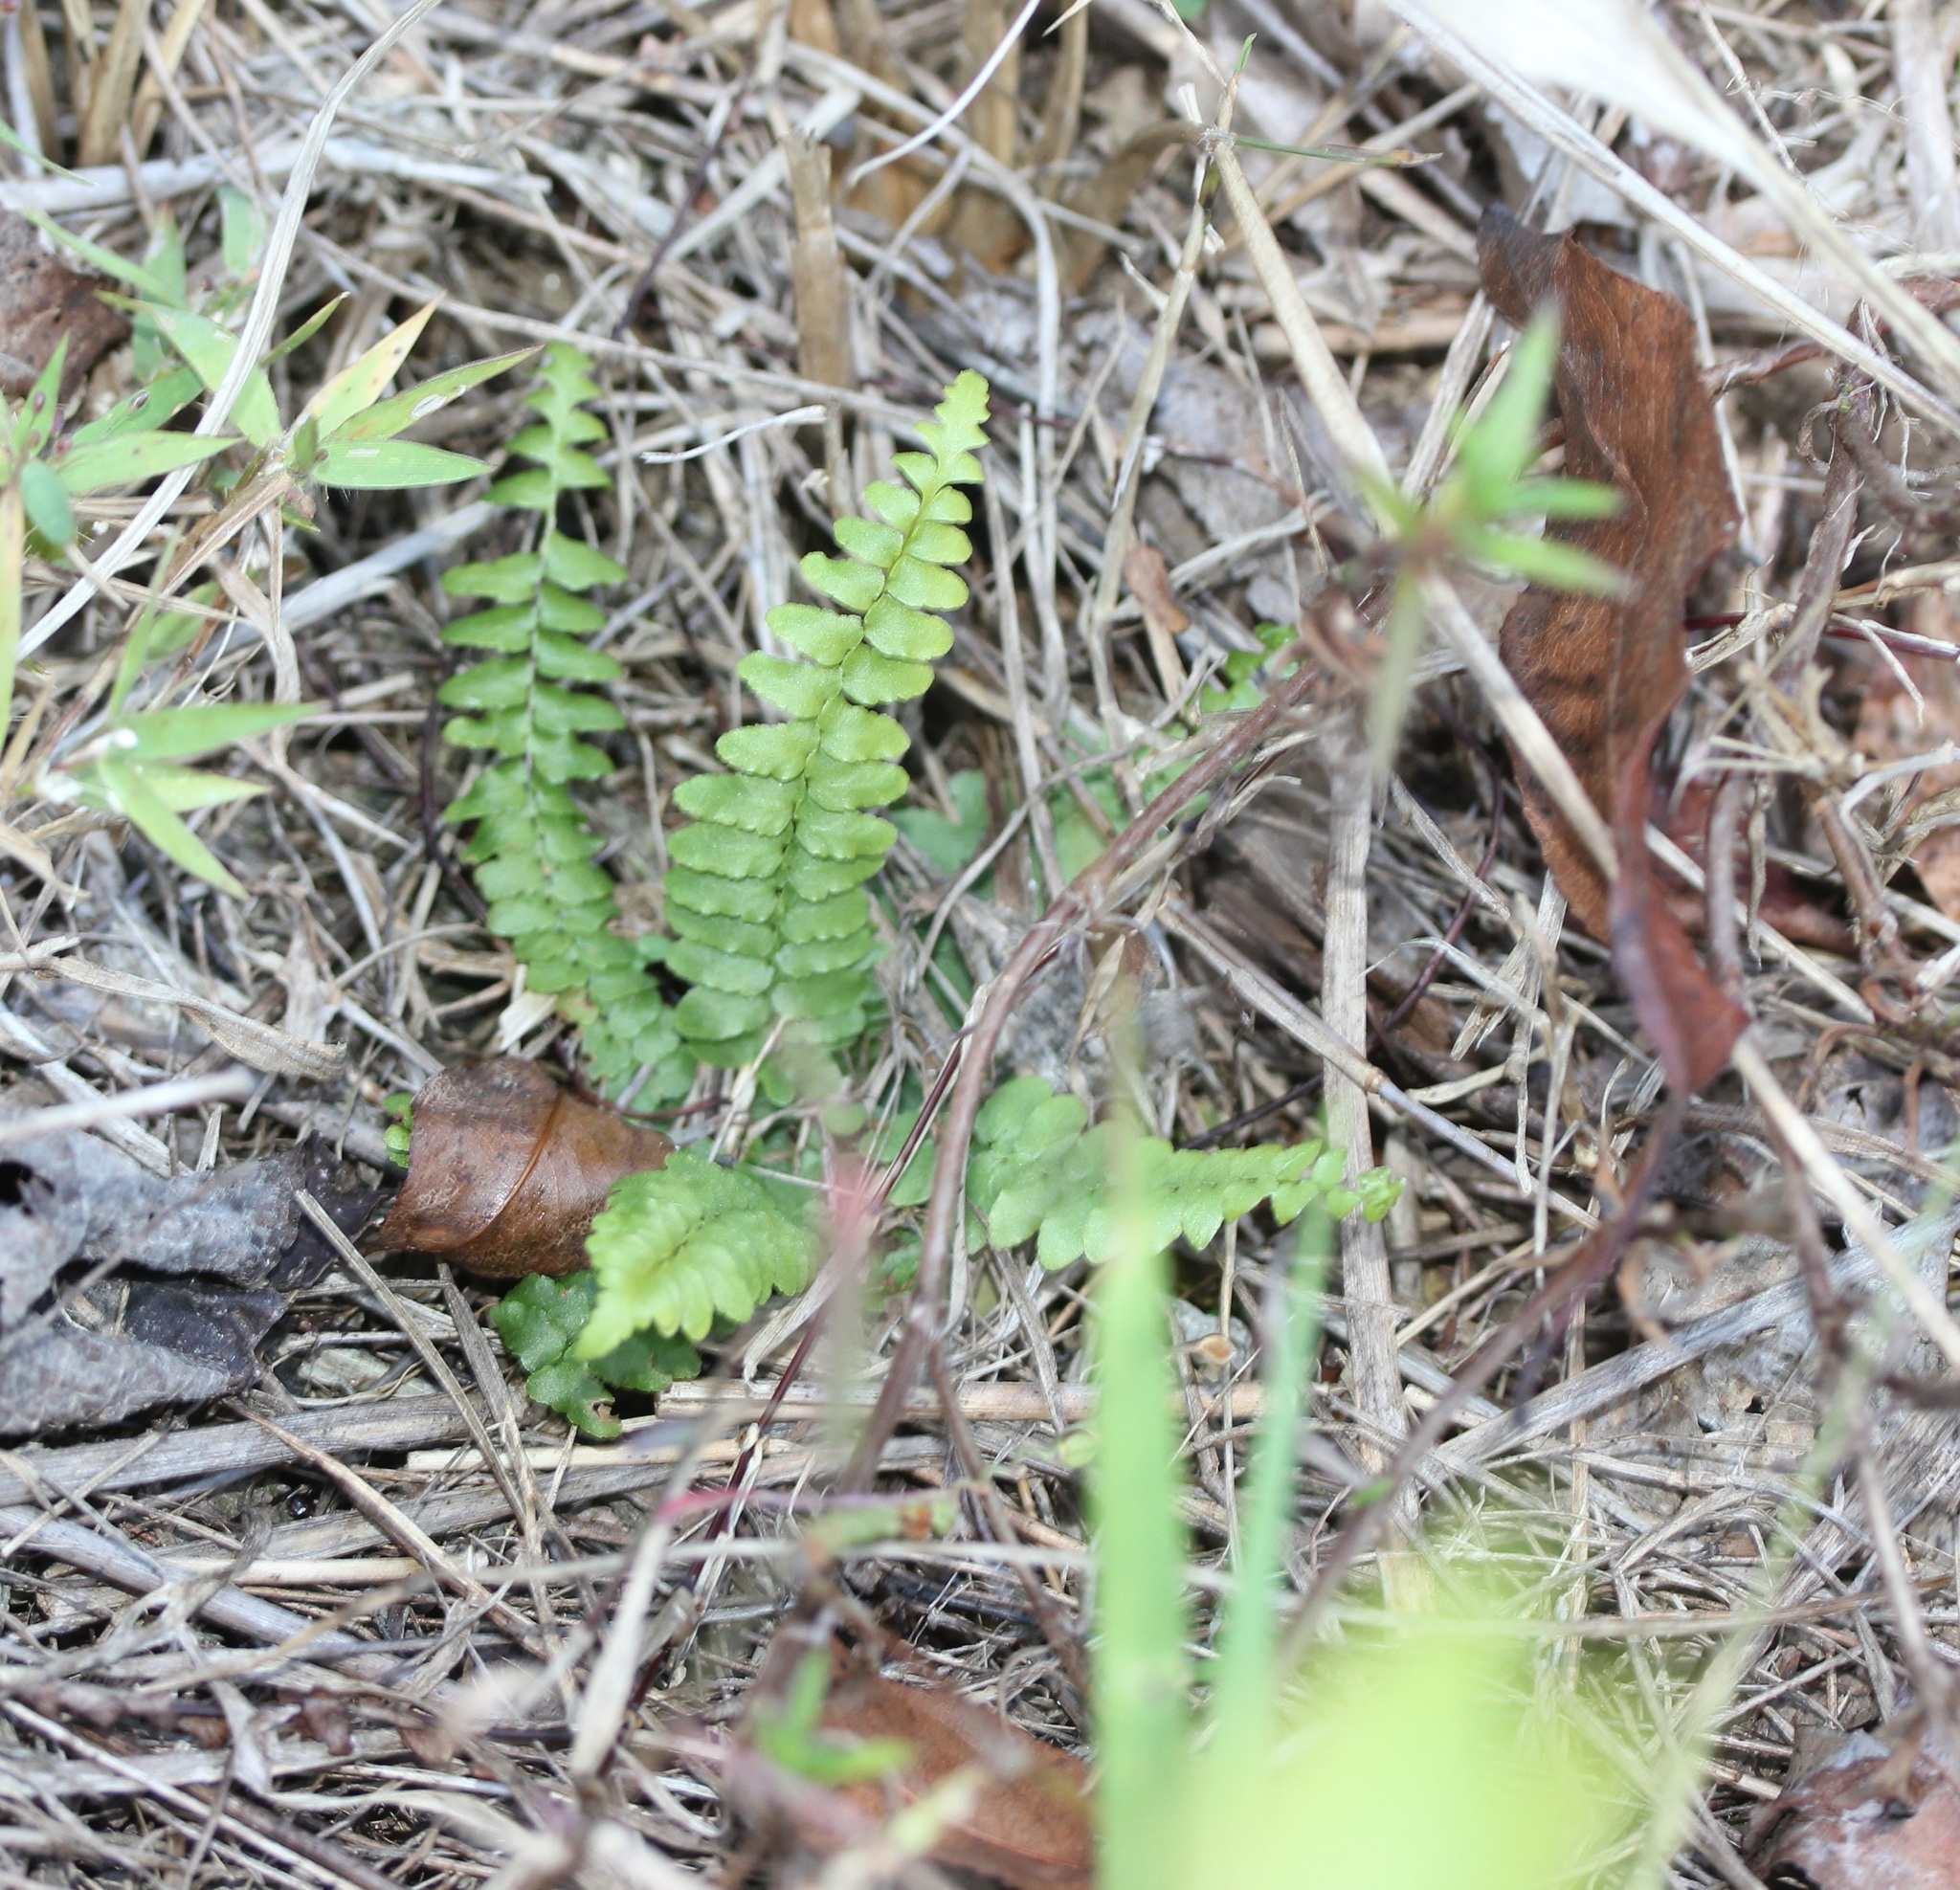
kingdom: Plantae
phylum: Tracheophyta
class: Polypodiopsida
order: Polypodiales
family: Aspleniaceae
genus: Asplenium
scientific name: Asplenium platyneuron
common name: Ebony spleenwort
